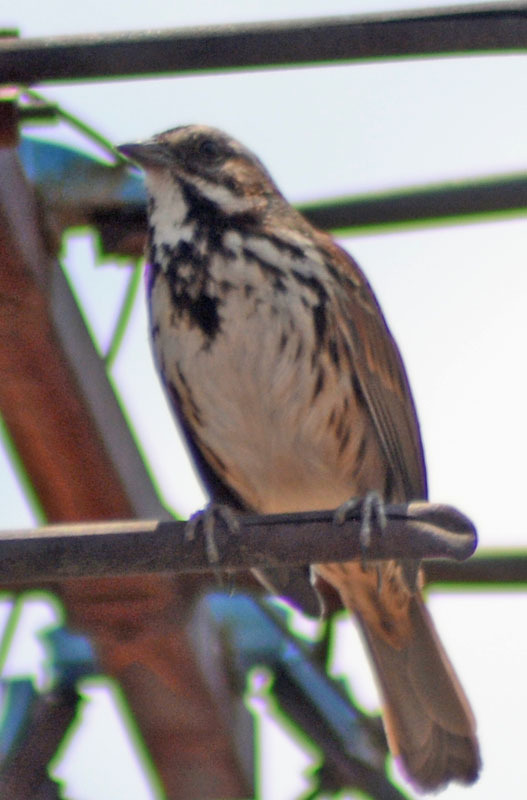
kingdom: Animalia
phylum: Chordata
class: Aves
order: Passeriformes
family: Passerellidae
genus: Melospiza
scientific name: Melospiza melodia
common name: Song sparrow
